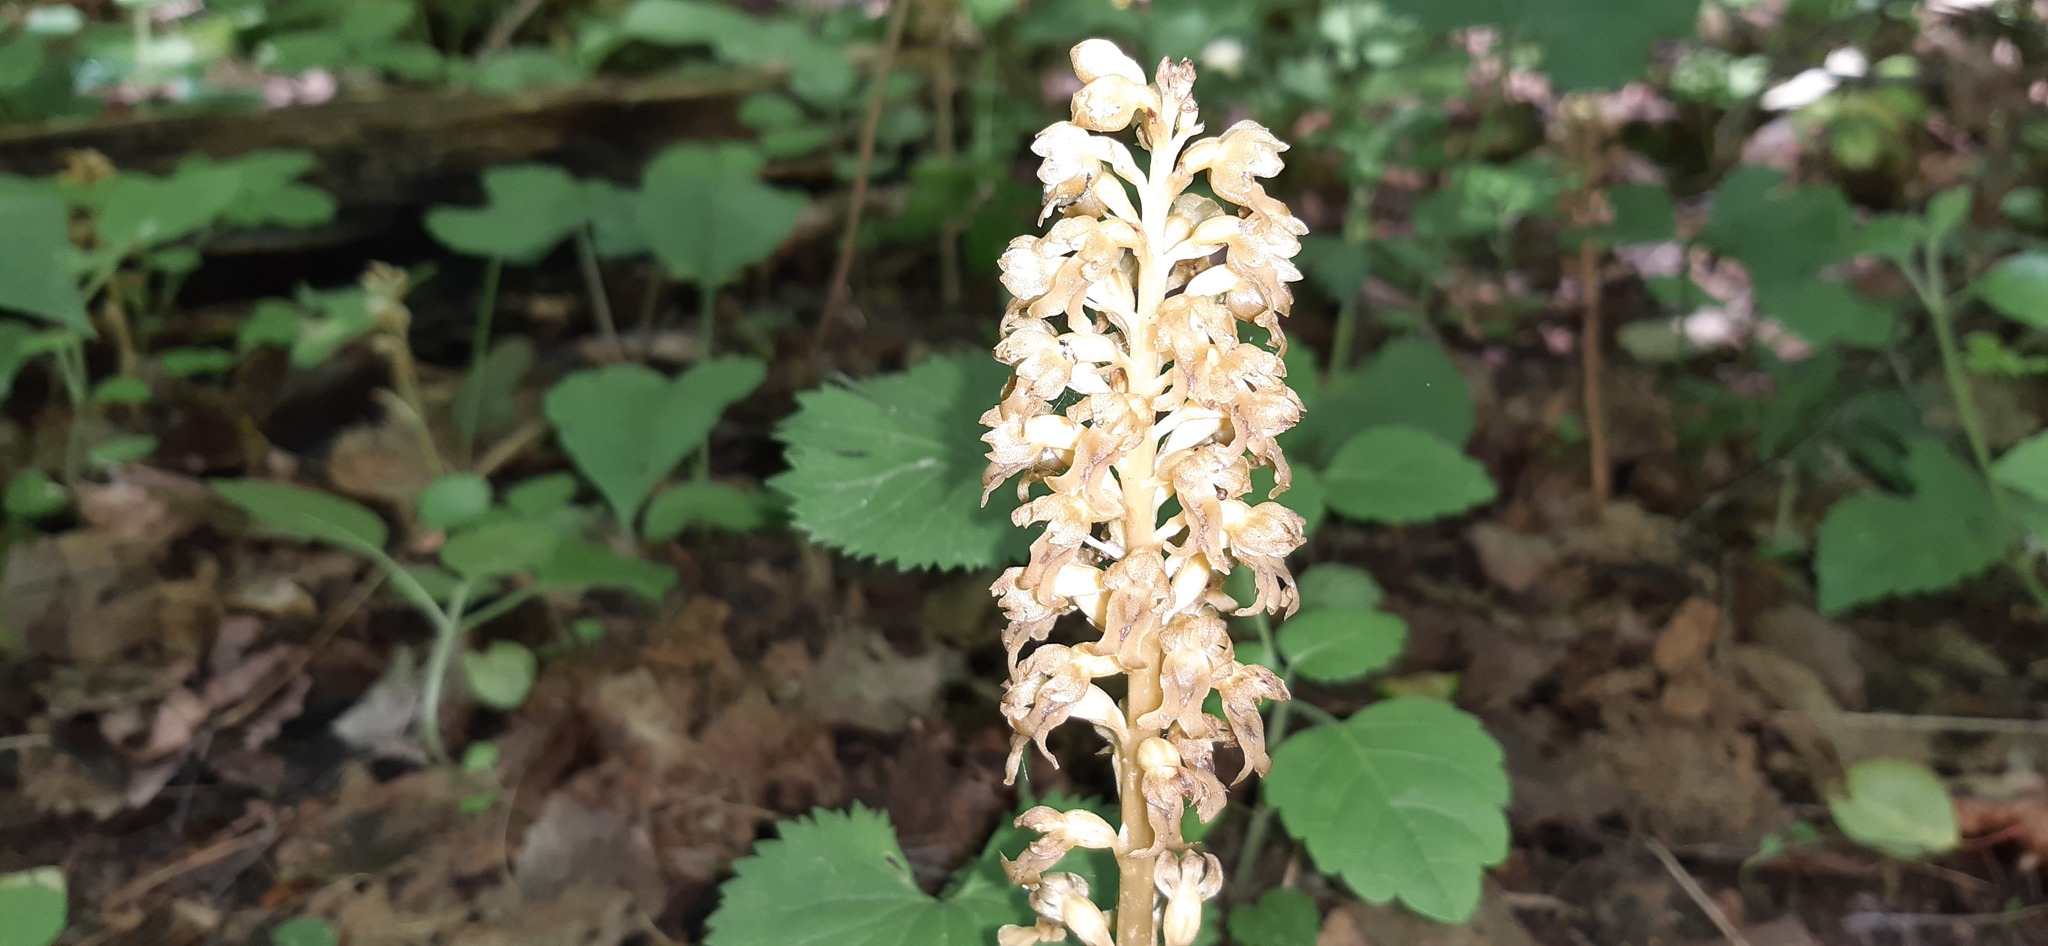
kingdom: Plantae
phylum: Tracheophyta
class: Liliopsida
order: Asparagales
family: Orchidaceae
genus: Neottia
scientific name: Neottia nidus-avis
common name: Bird's-nest orchid
